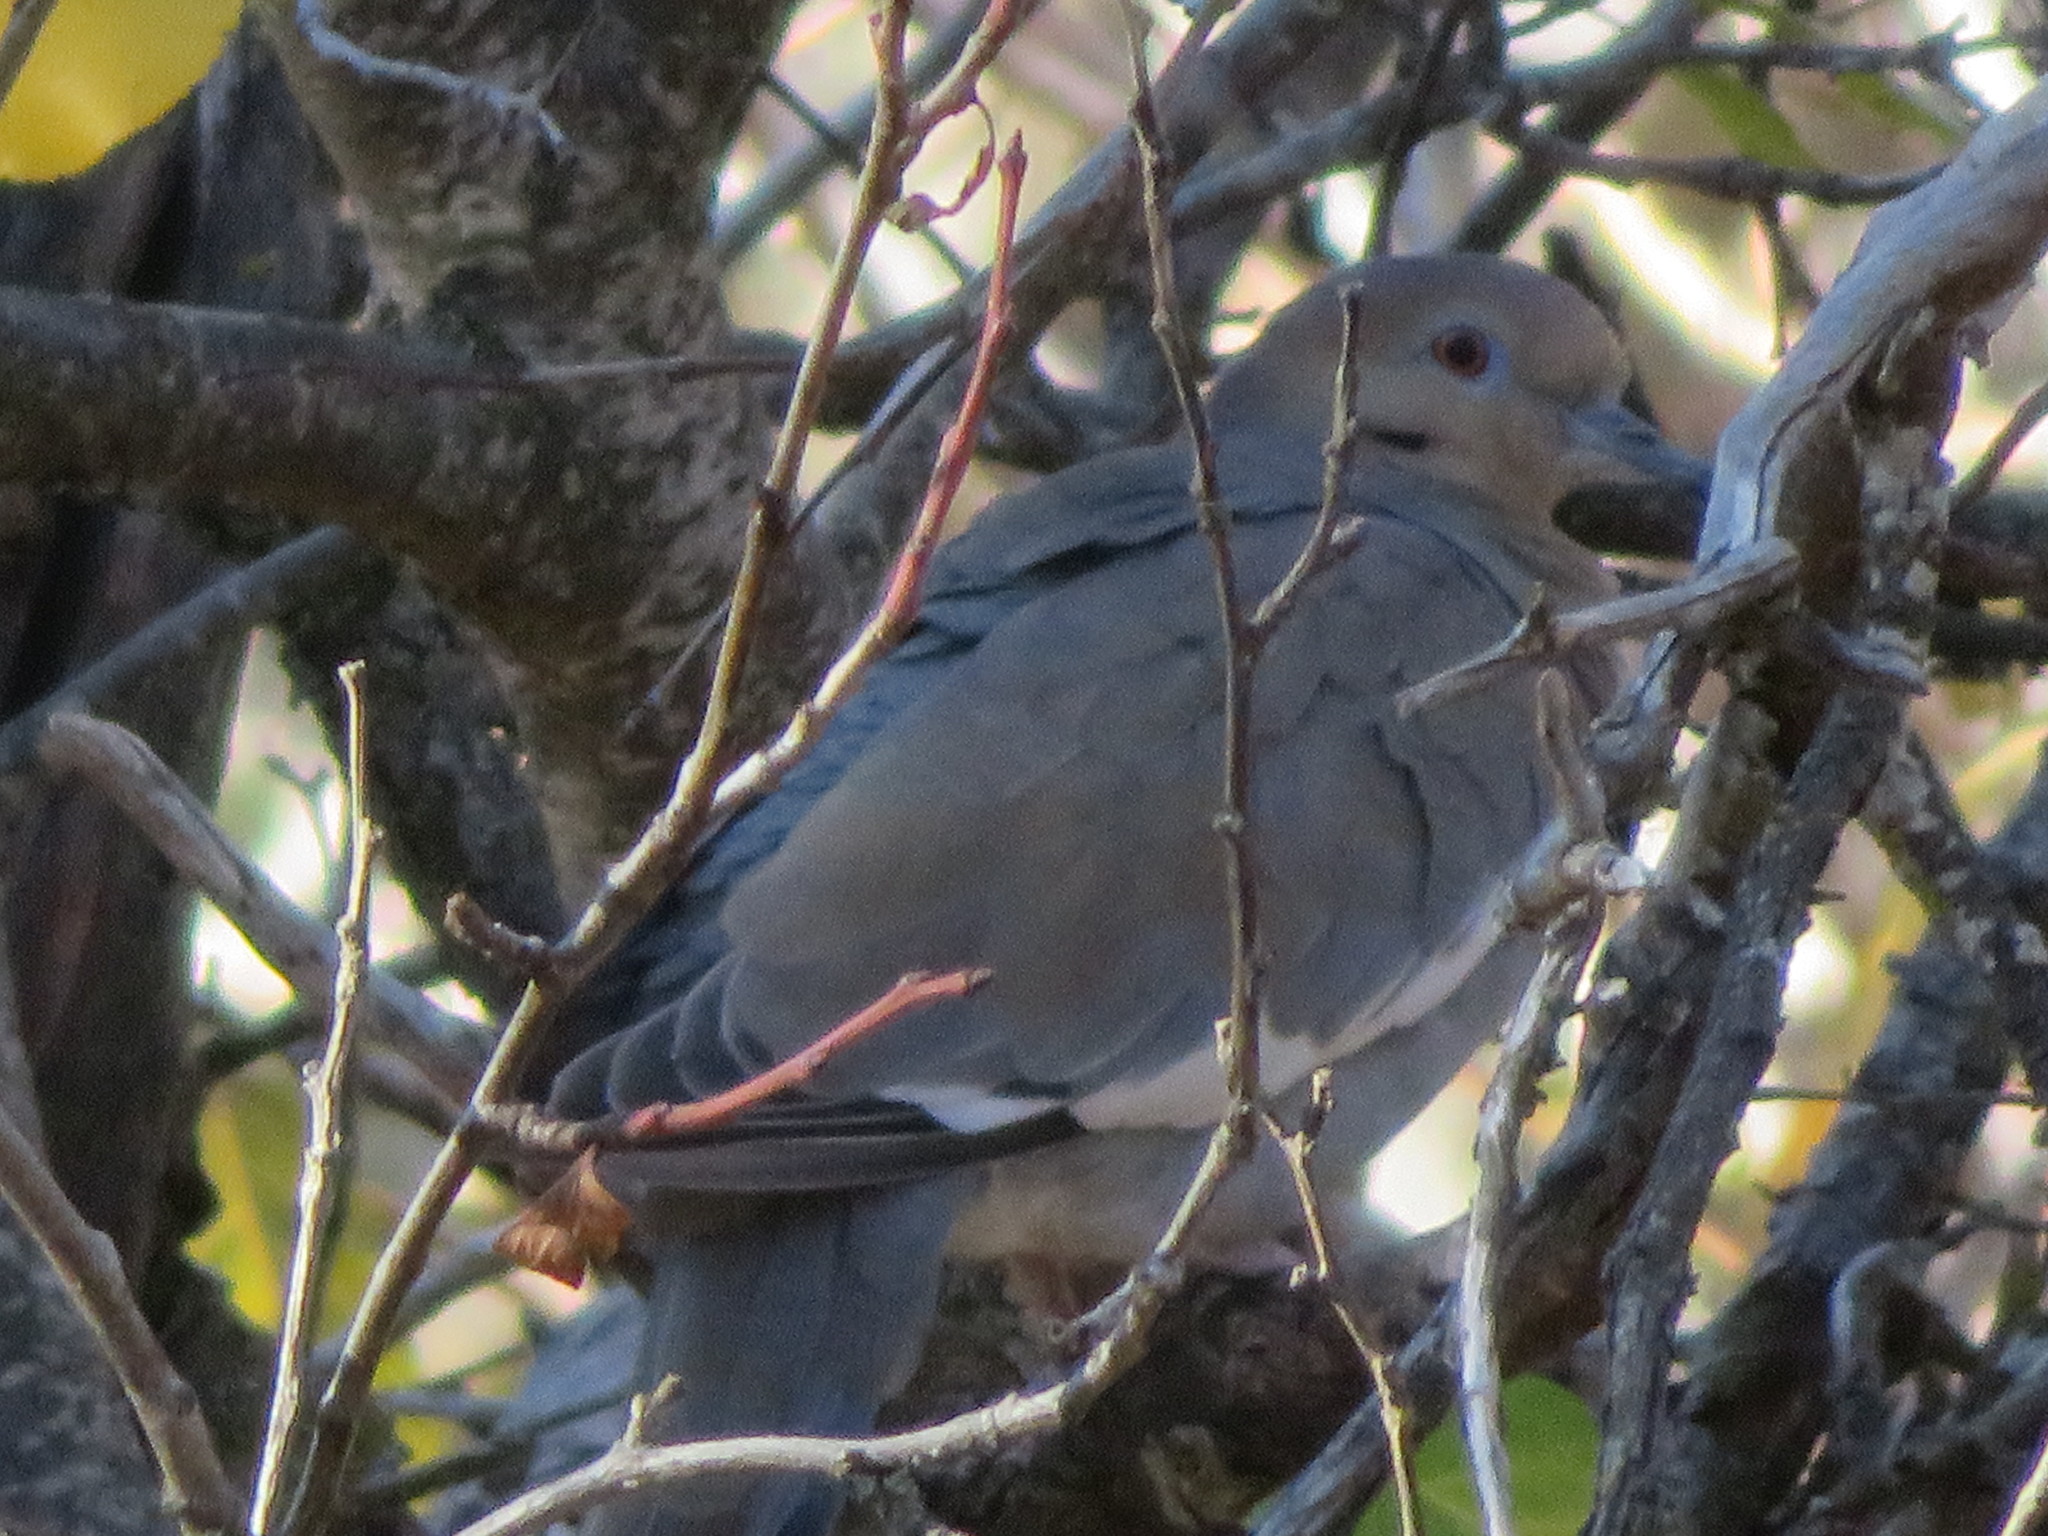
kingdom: Animalia
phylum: Chordata
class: Aves
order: Columbiformes
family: Columbidae
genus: Zenaida
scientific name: Zenaida asiatica
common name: White-winged dove
